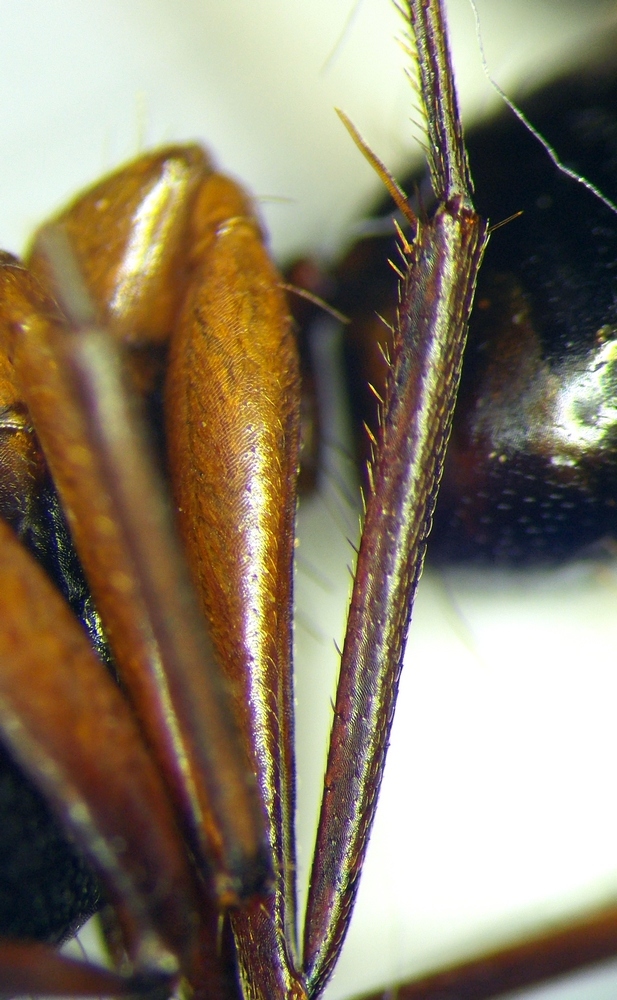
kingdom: Animalia
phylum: Arthropoda
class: Insecta
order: Hymenoptera
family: Formicidae
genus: Camponotus
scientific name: Camponotus sanctus
